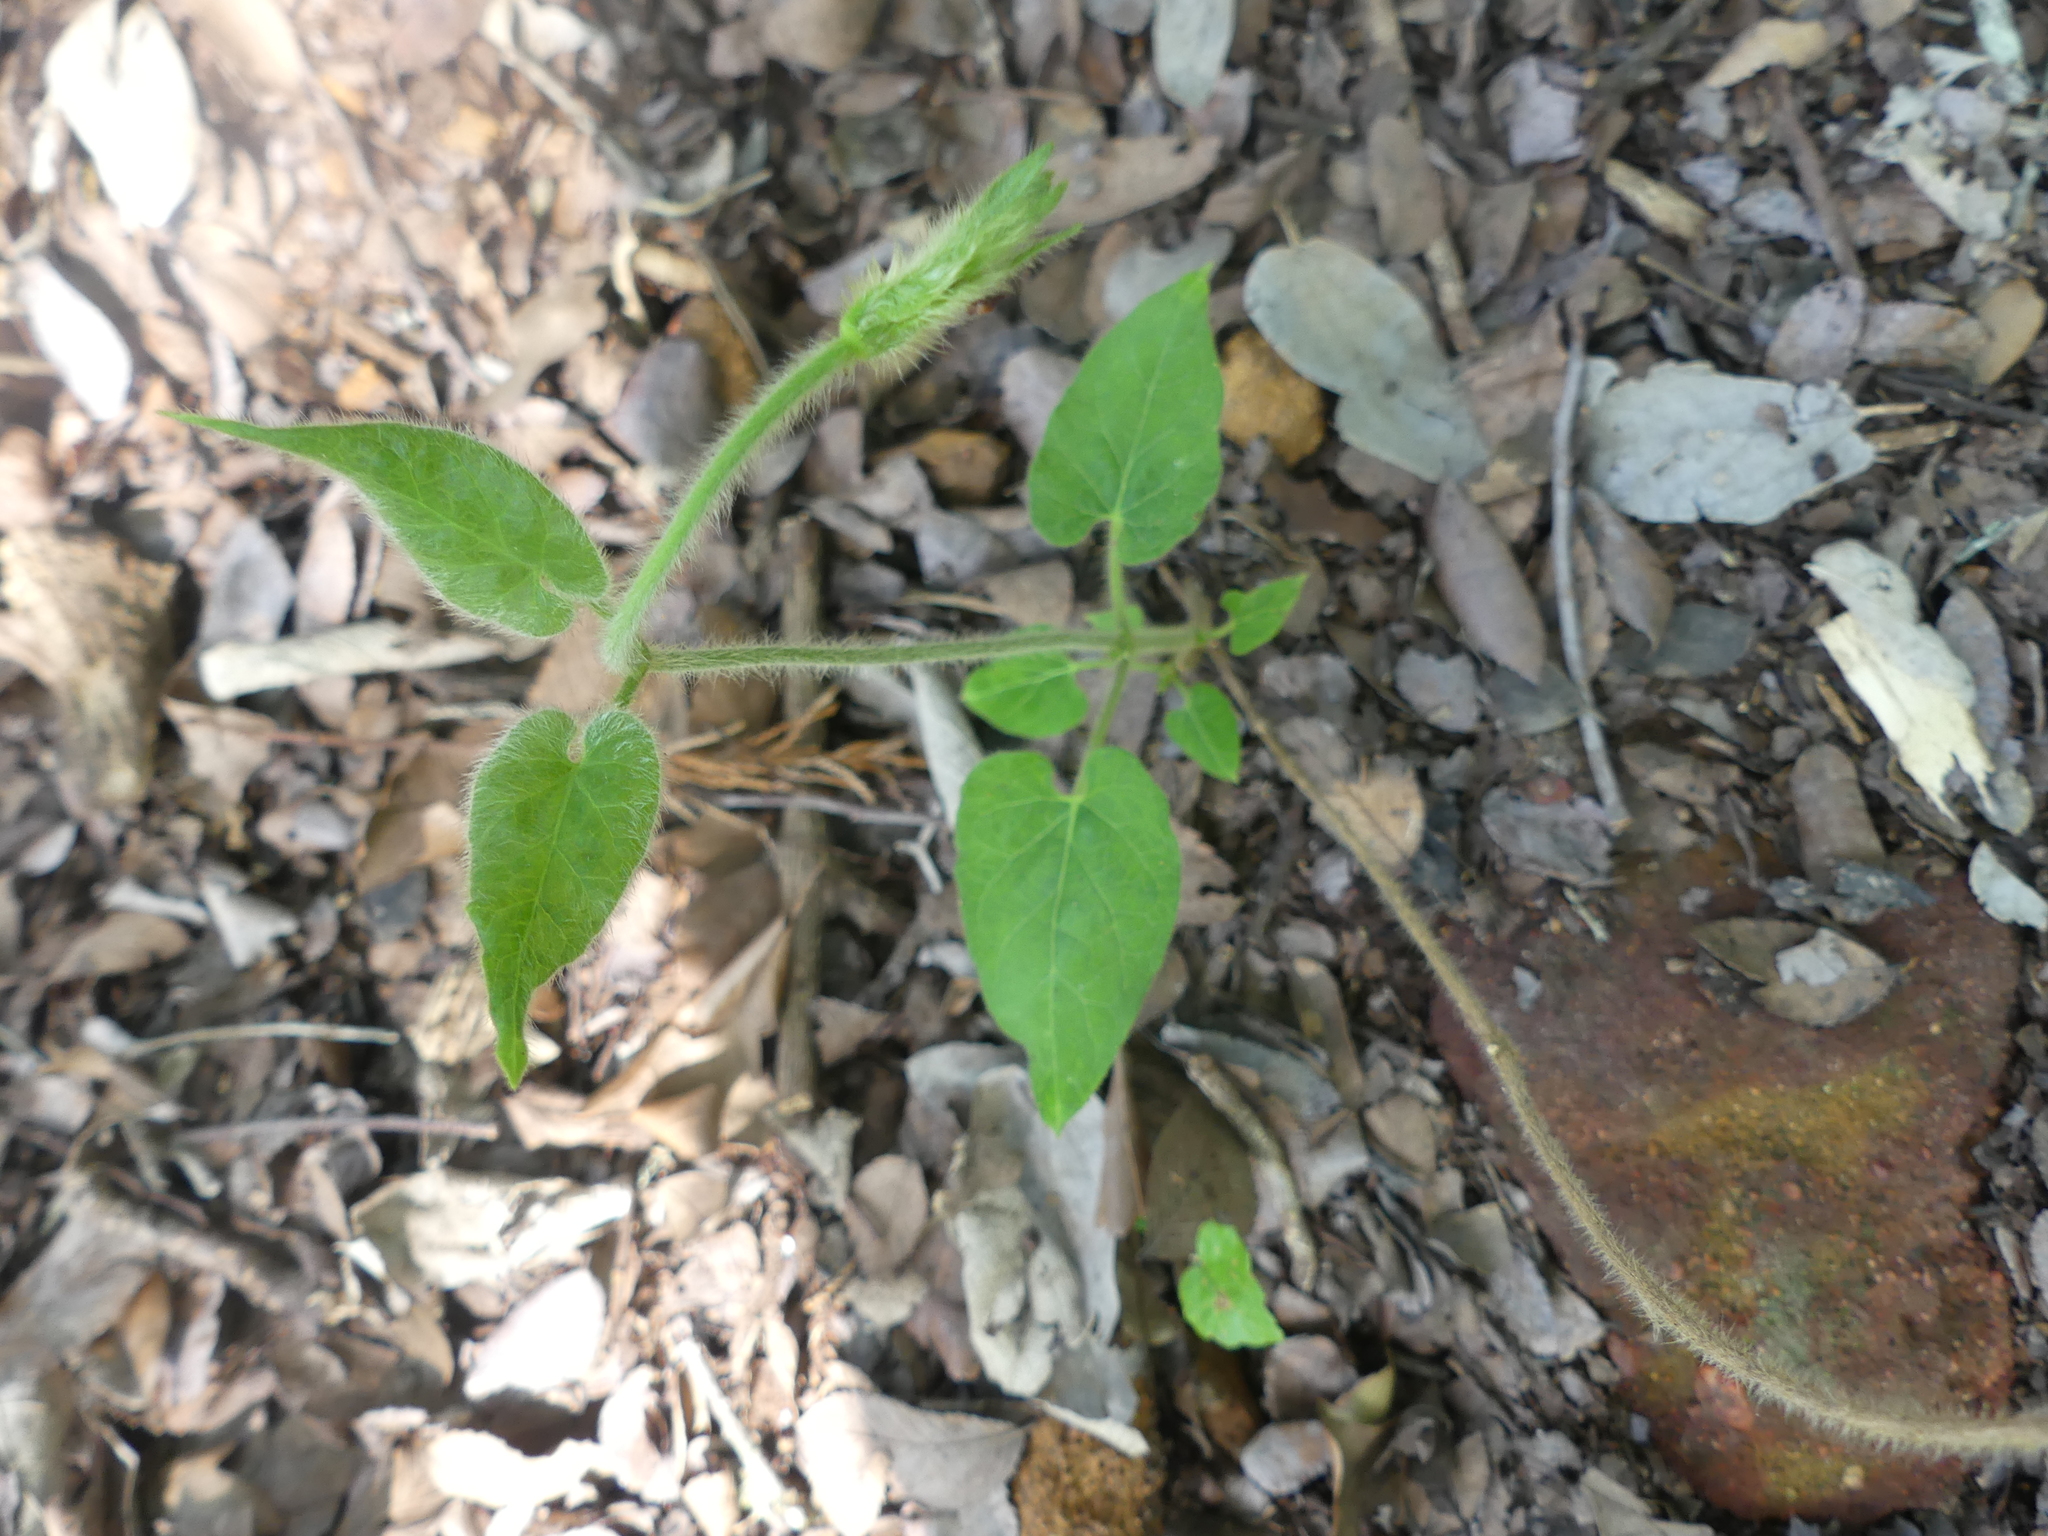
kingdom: Plantae
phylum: Tracheophyta
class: Magnoliopsida
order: Gentianales
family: Apocynaceae
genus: Dictyanthus
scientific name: Dictyanthus reticulatus
